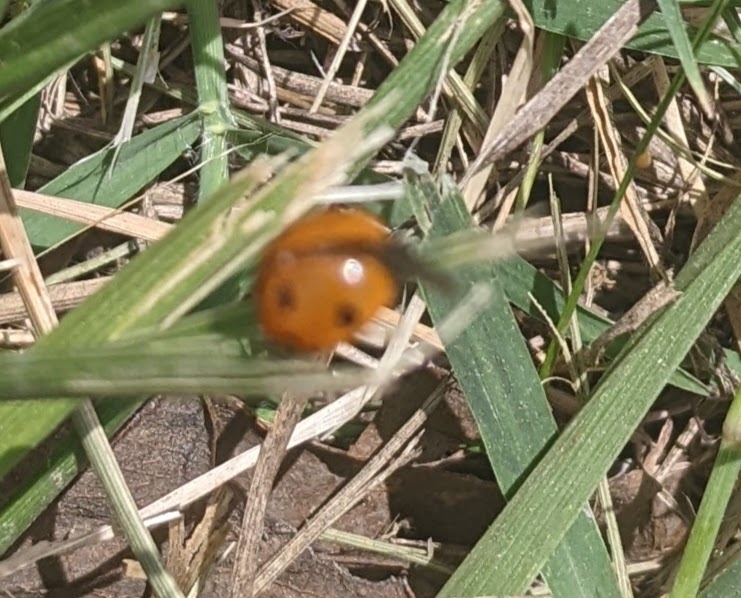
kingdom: Animalia
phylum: Arthropoda
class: Insecta
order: Coleoptera
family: Coccinellidae
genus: Coccinella
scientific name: Coccinella septempunctata
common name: Sevenspotted lady beetle
